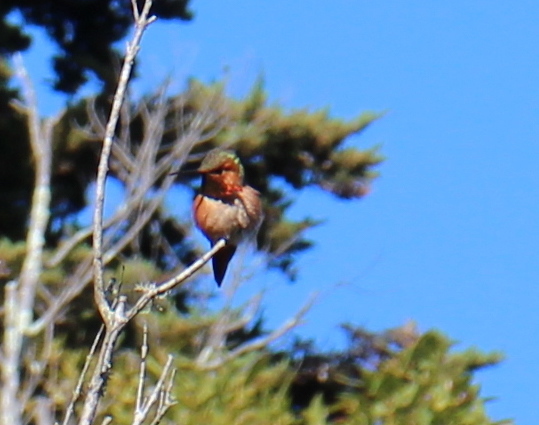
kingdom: Animalia
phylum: Chordata
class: Aves
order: Apodiformes
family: Trochilidae
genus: Selasphorus
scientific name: Selasphorus
